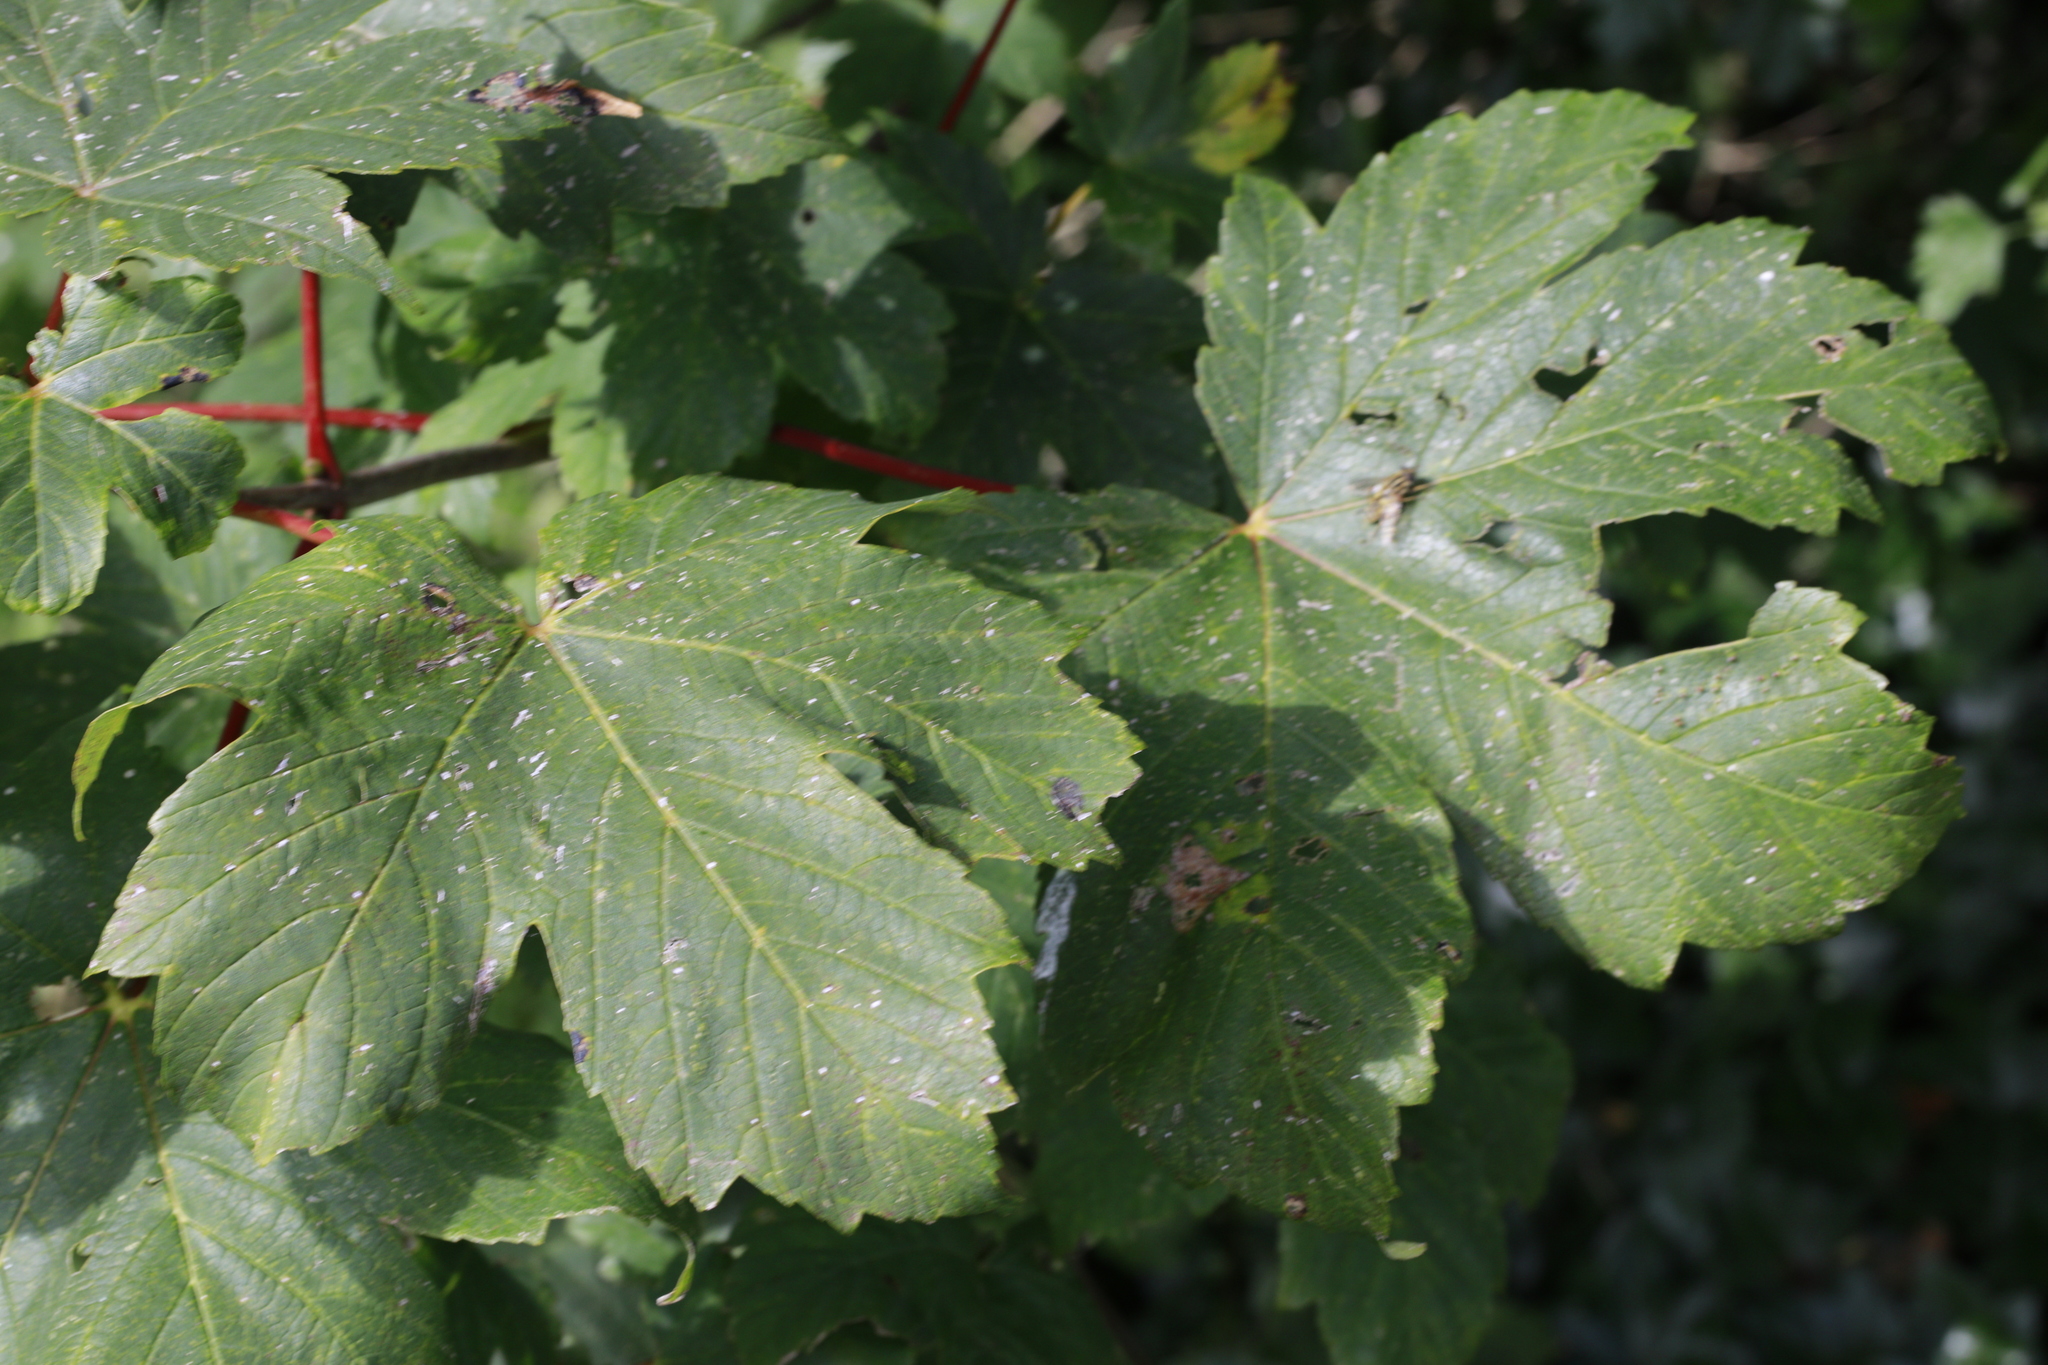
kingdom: Plantae
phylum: Tracheophyta
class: Magnoliopsida
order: Sapindales
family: Sapindaceae
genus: Acer
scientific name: Acer pseudoplatanus
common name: Sycamore
